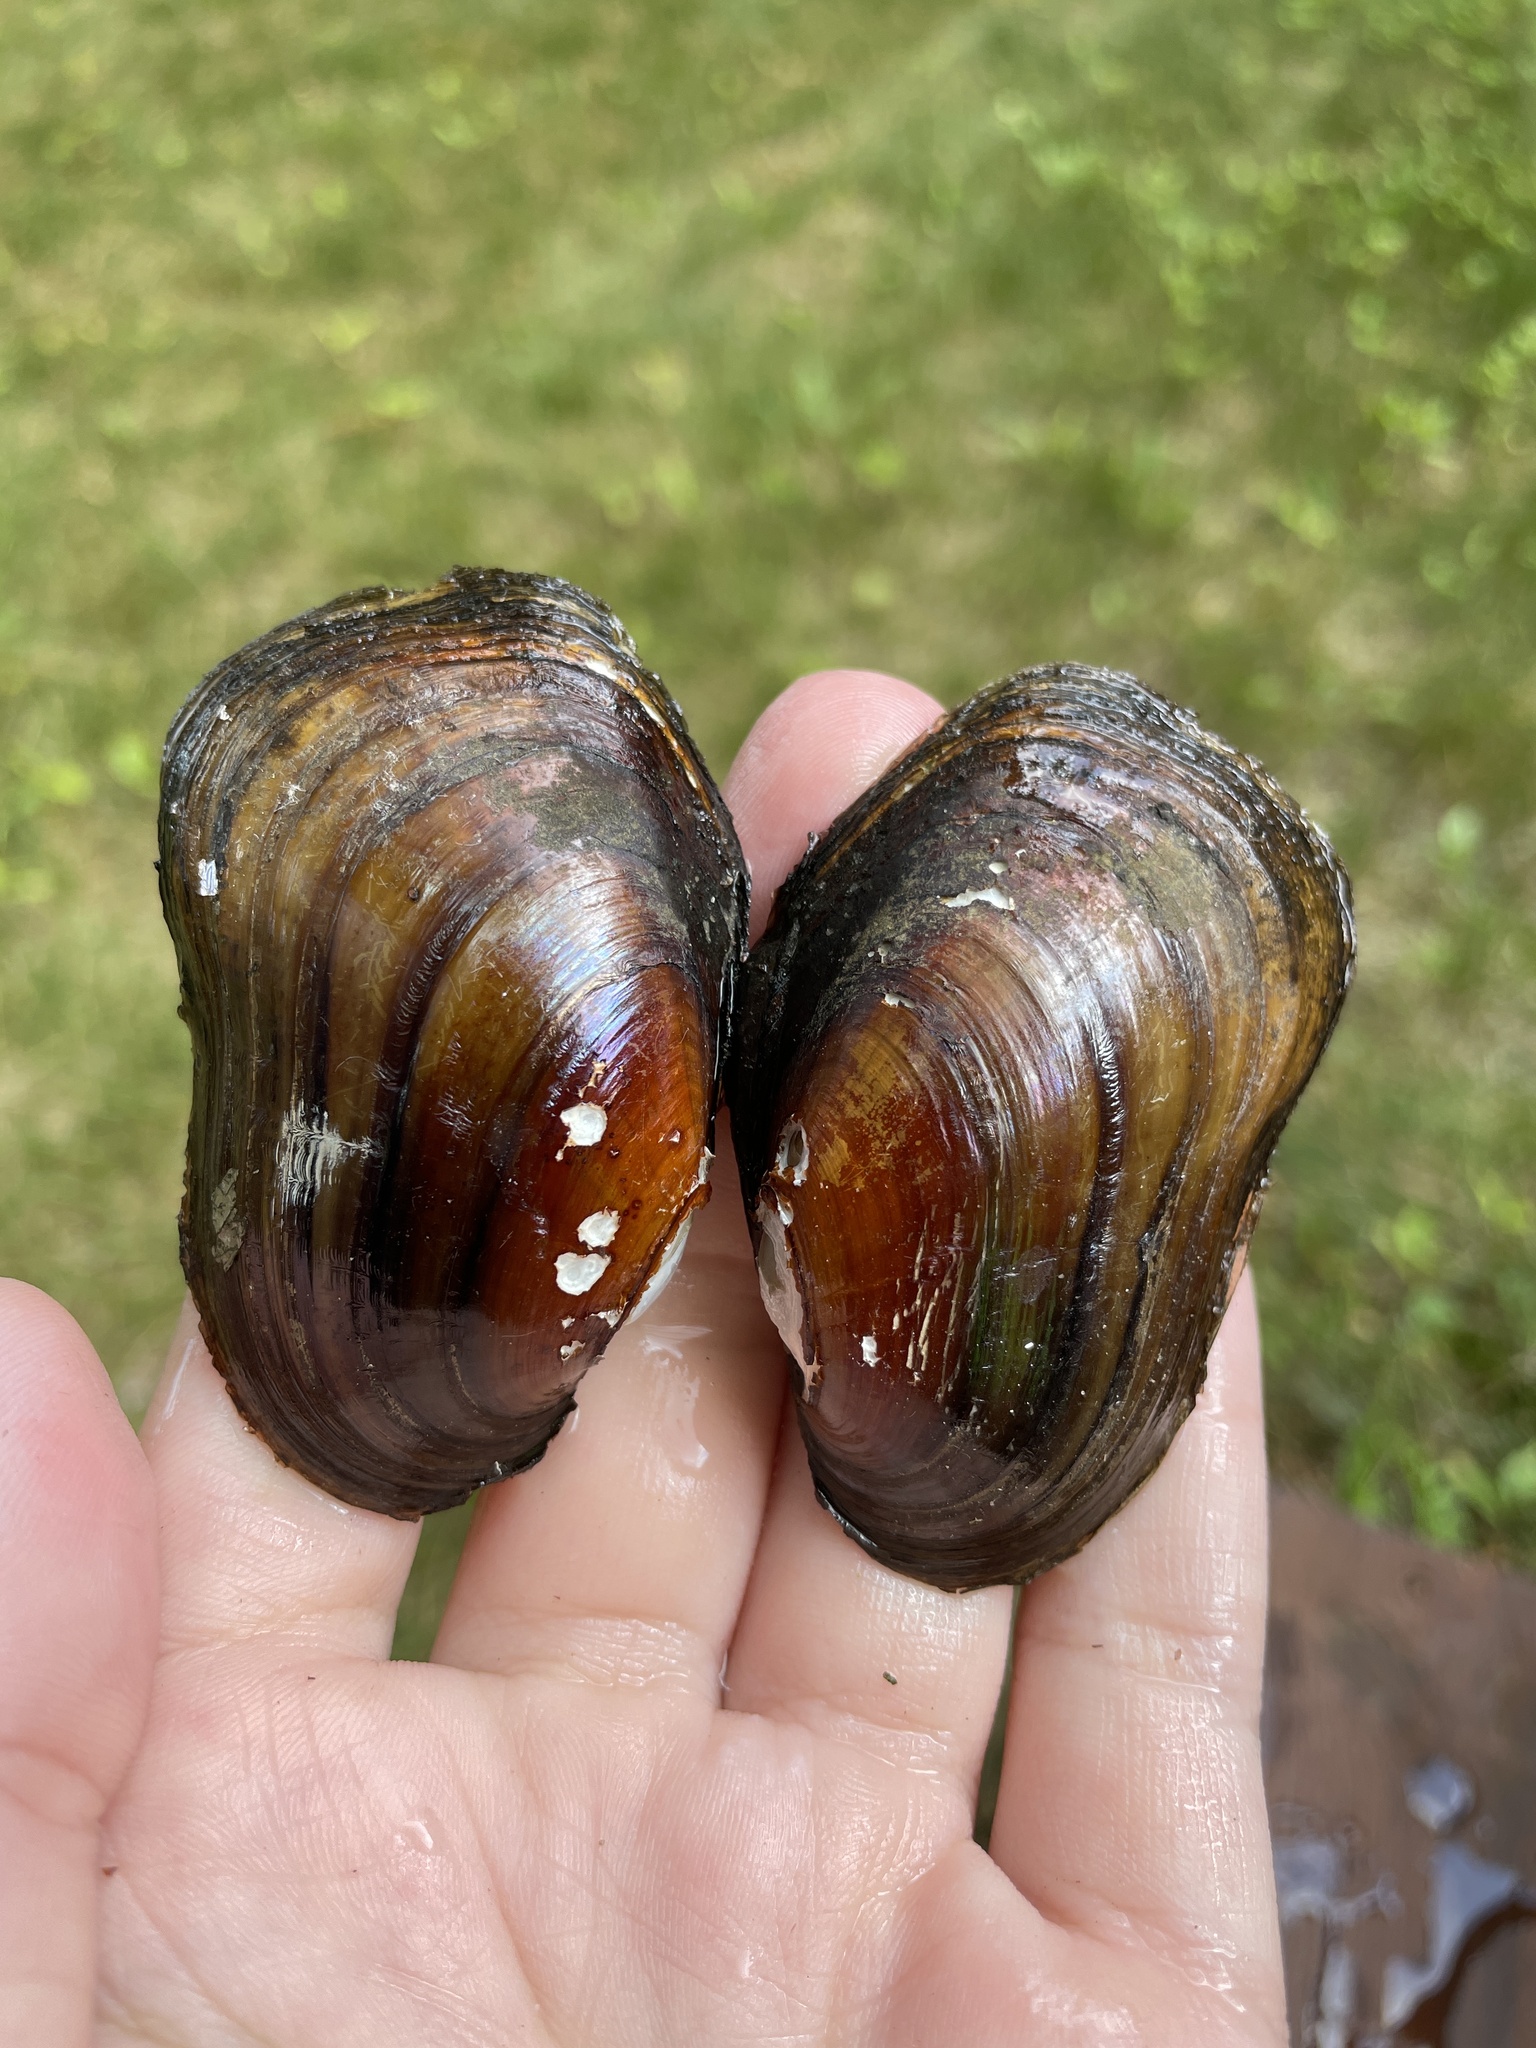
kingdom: Animalia
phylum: Mollusca
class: Bivalvia
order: Unionida
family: Unionidae
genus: Lampsilis
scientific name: Lampsilis siliquoidea
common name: Fatmucket
